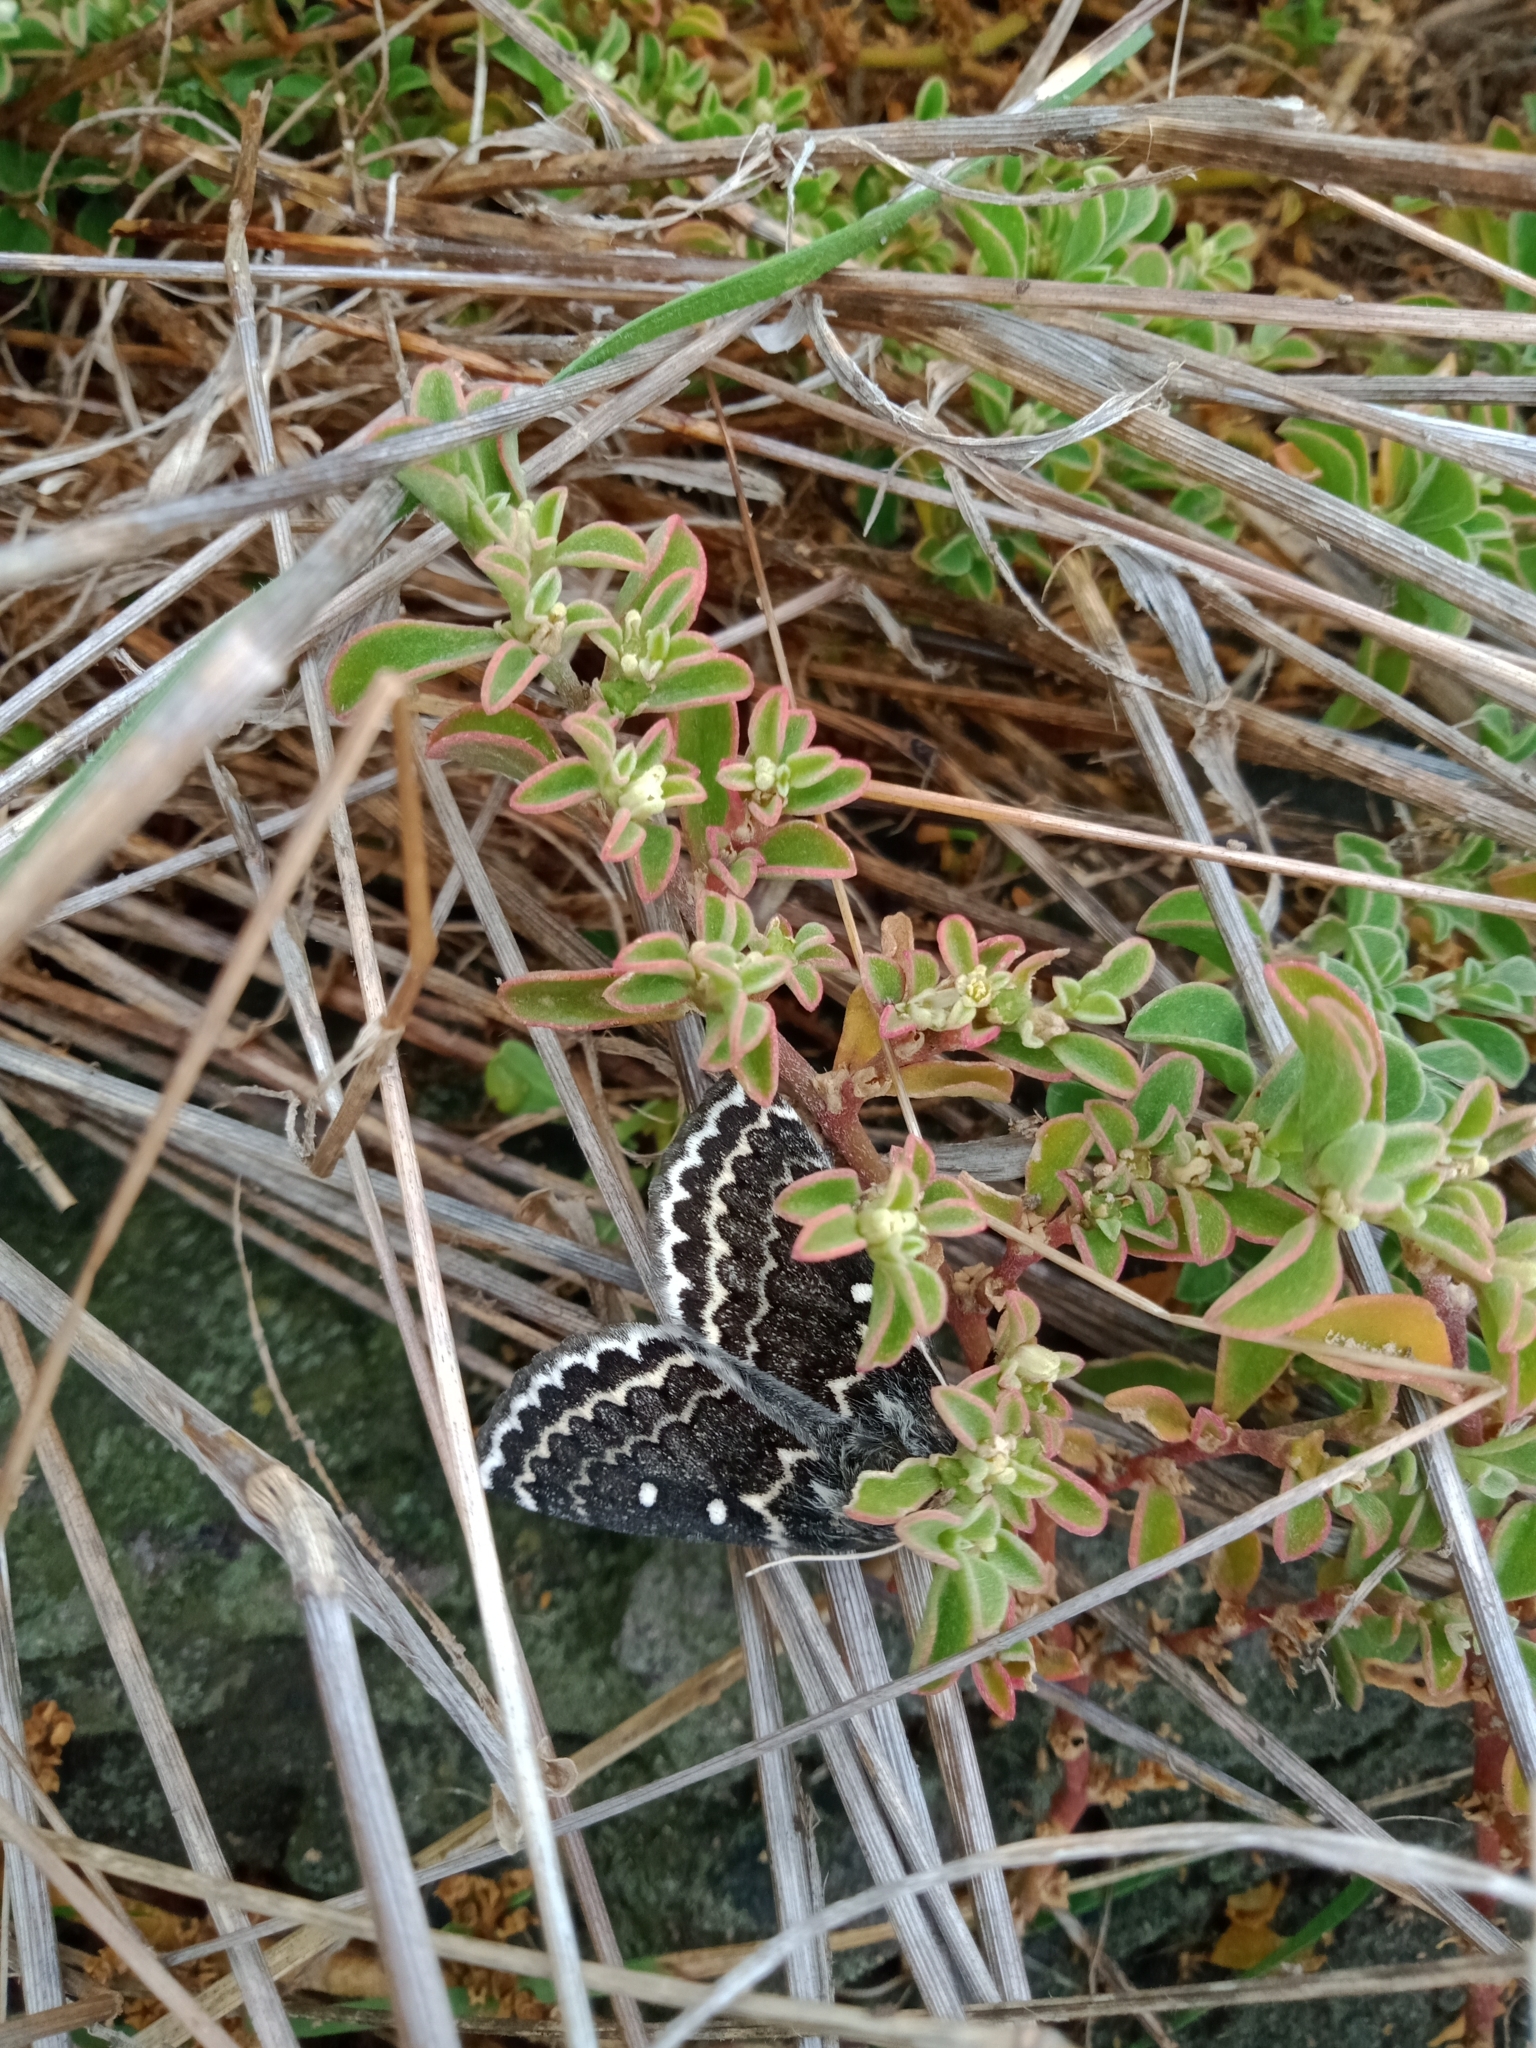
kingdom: Animalia
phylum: Arthropoda
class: Insecta
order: Lepidoptera
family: Anthelidae
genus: Anthela
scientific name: Anthela denticulata
